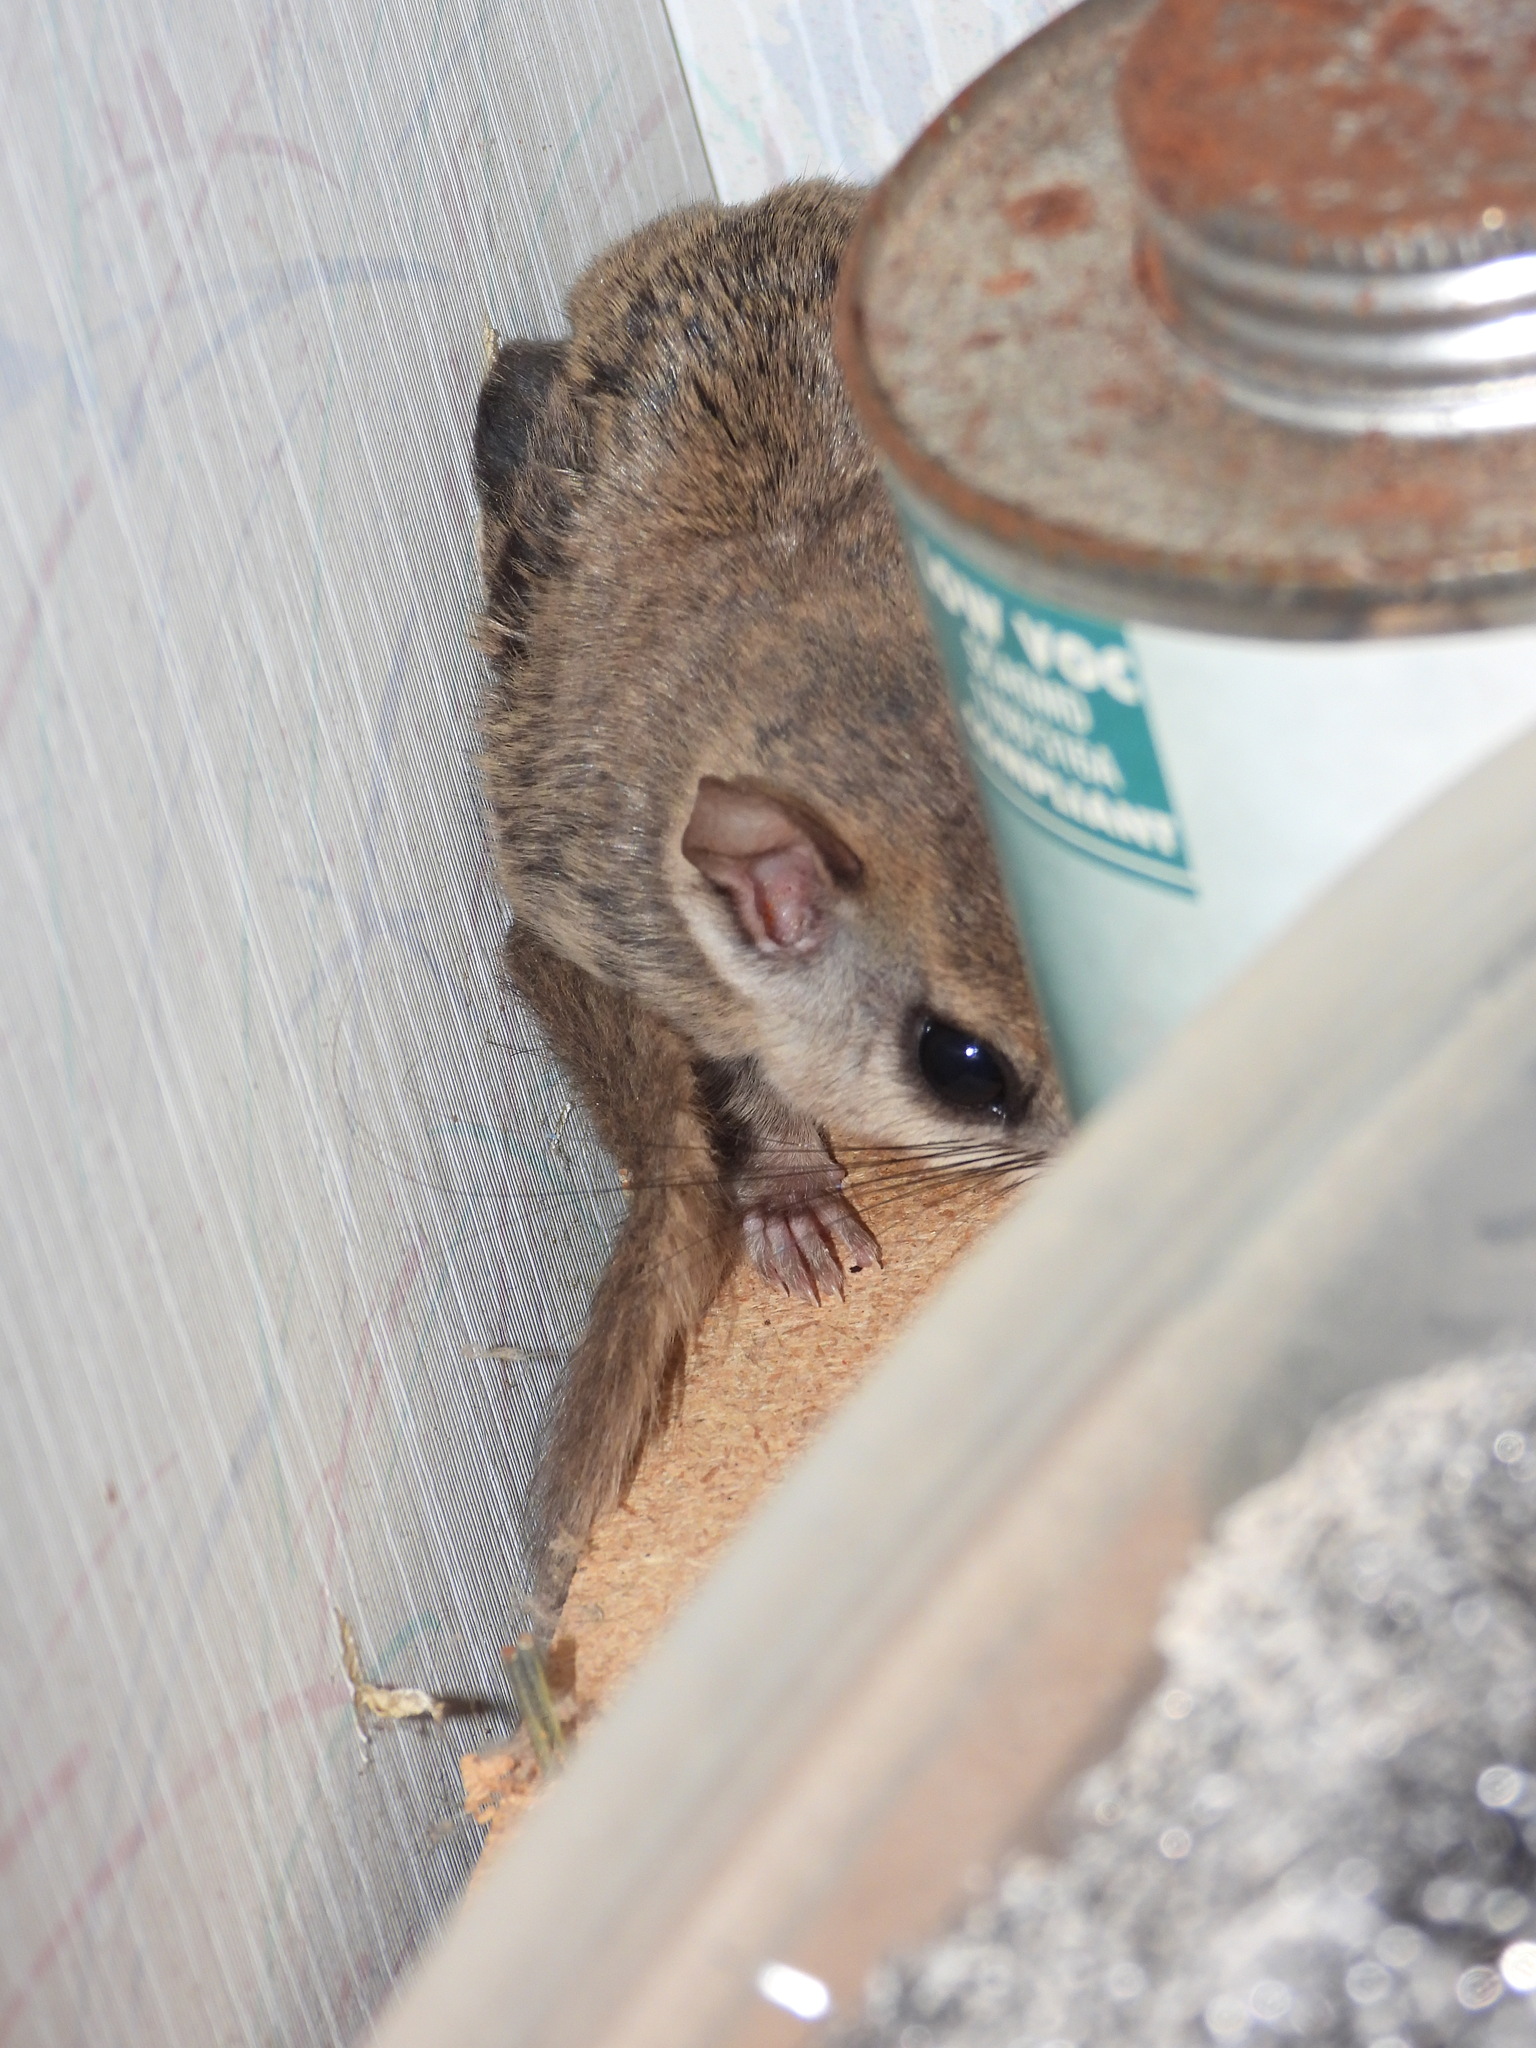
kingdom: Animalia
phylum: Chordata
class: Mammalia
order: Rodentia
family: Sciuridae
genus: Glaucomys
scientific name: Glaucomys volans
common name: Southern flying squirrel
